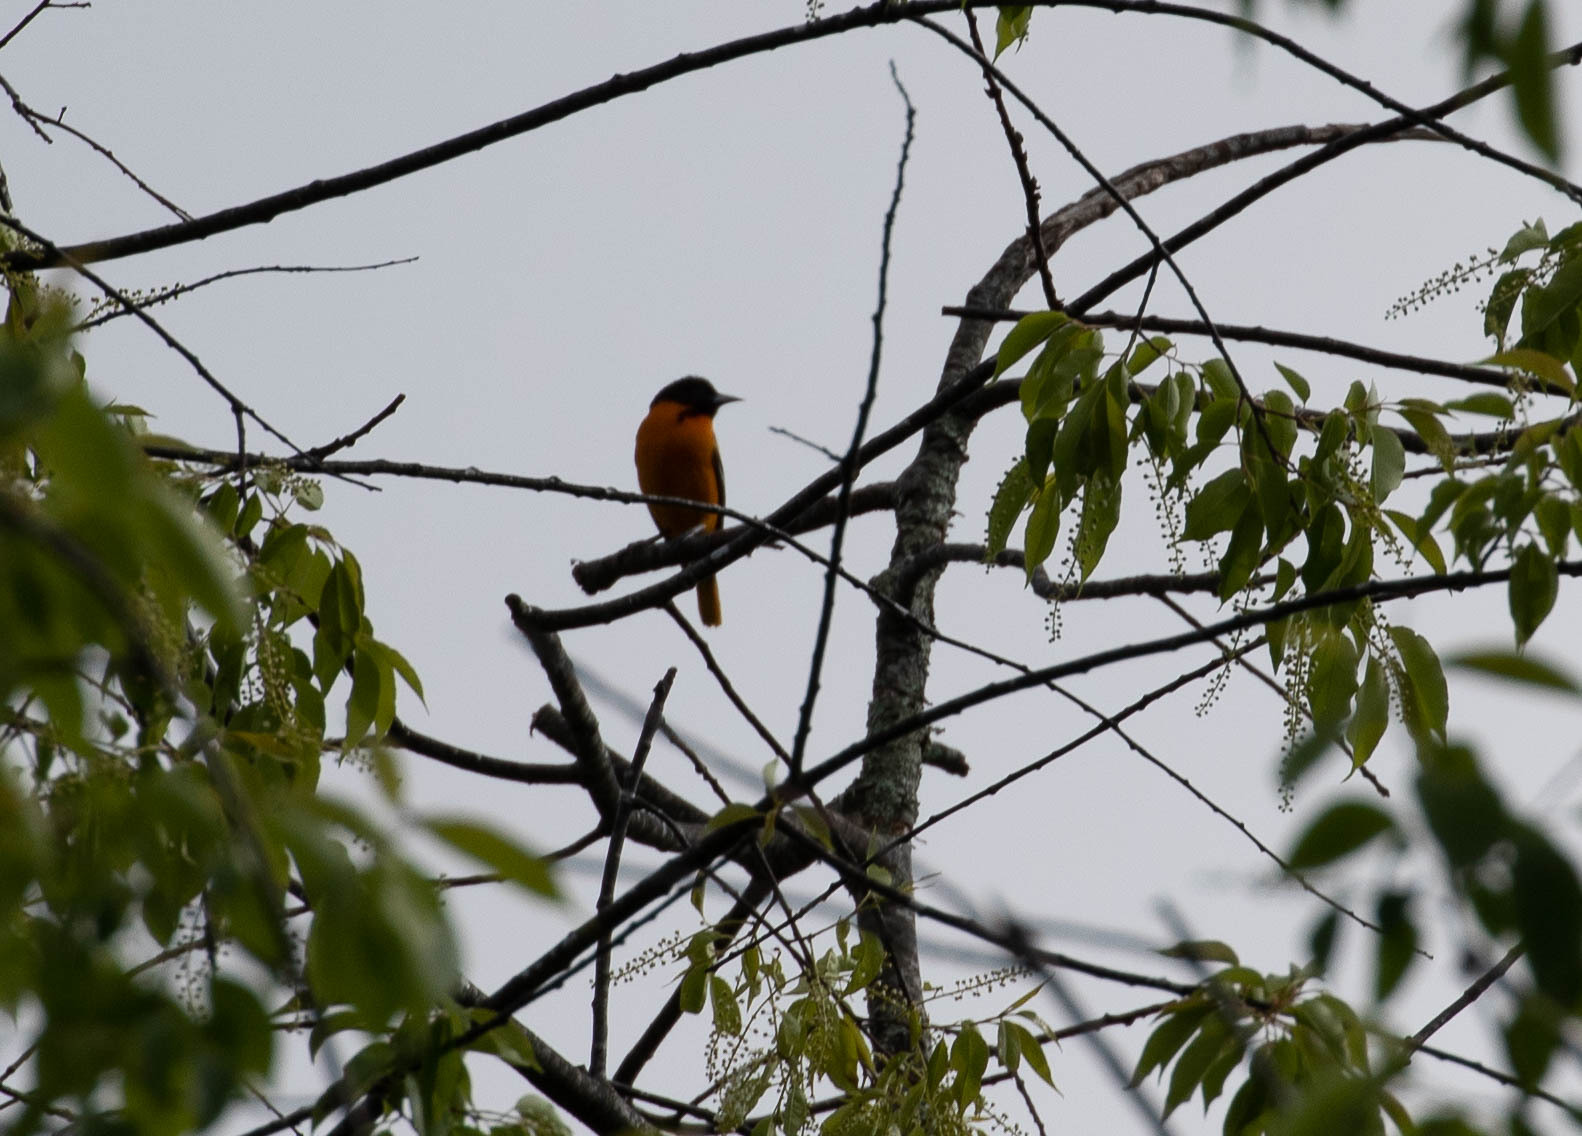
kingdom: Animalia
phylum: Chordata
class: Aves
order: Passeriformes
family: Icteridae
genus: Icterus
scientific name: Icterus galbula
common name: Baltimore oriole
